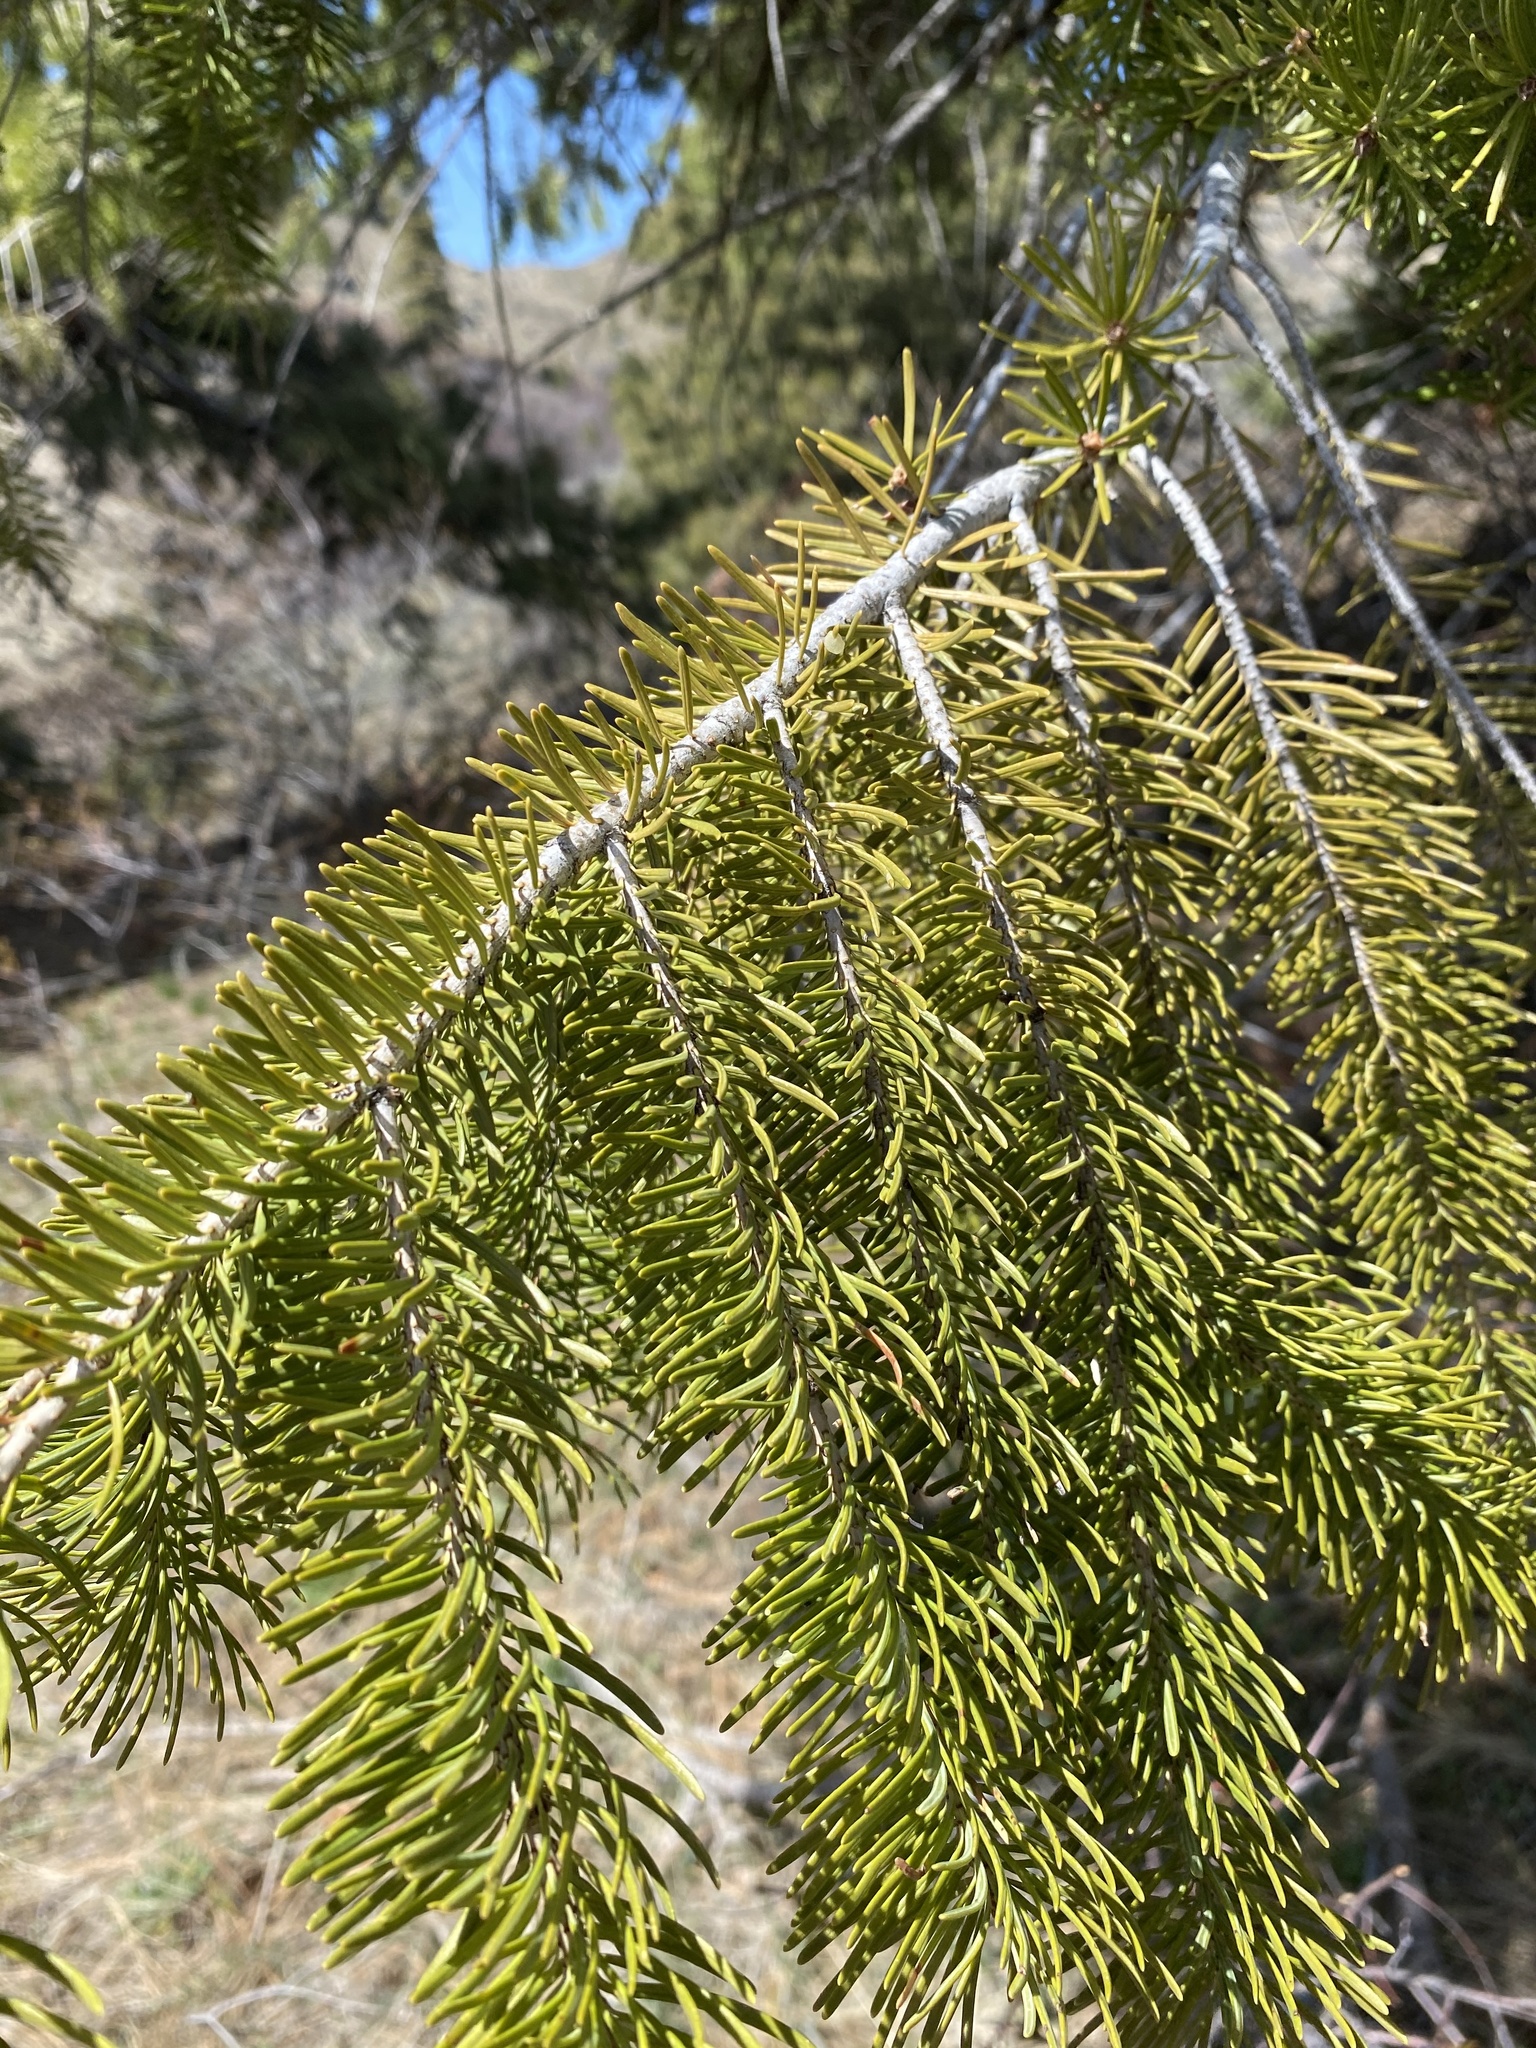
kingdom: Plantae
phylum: Tracheophyta
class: Pinopsida
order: Pinales
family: Pinaceae
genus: Pseudotsuga
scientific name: Pseudotsuga menziesii
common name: Douglas fir
